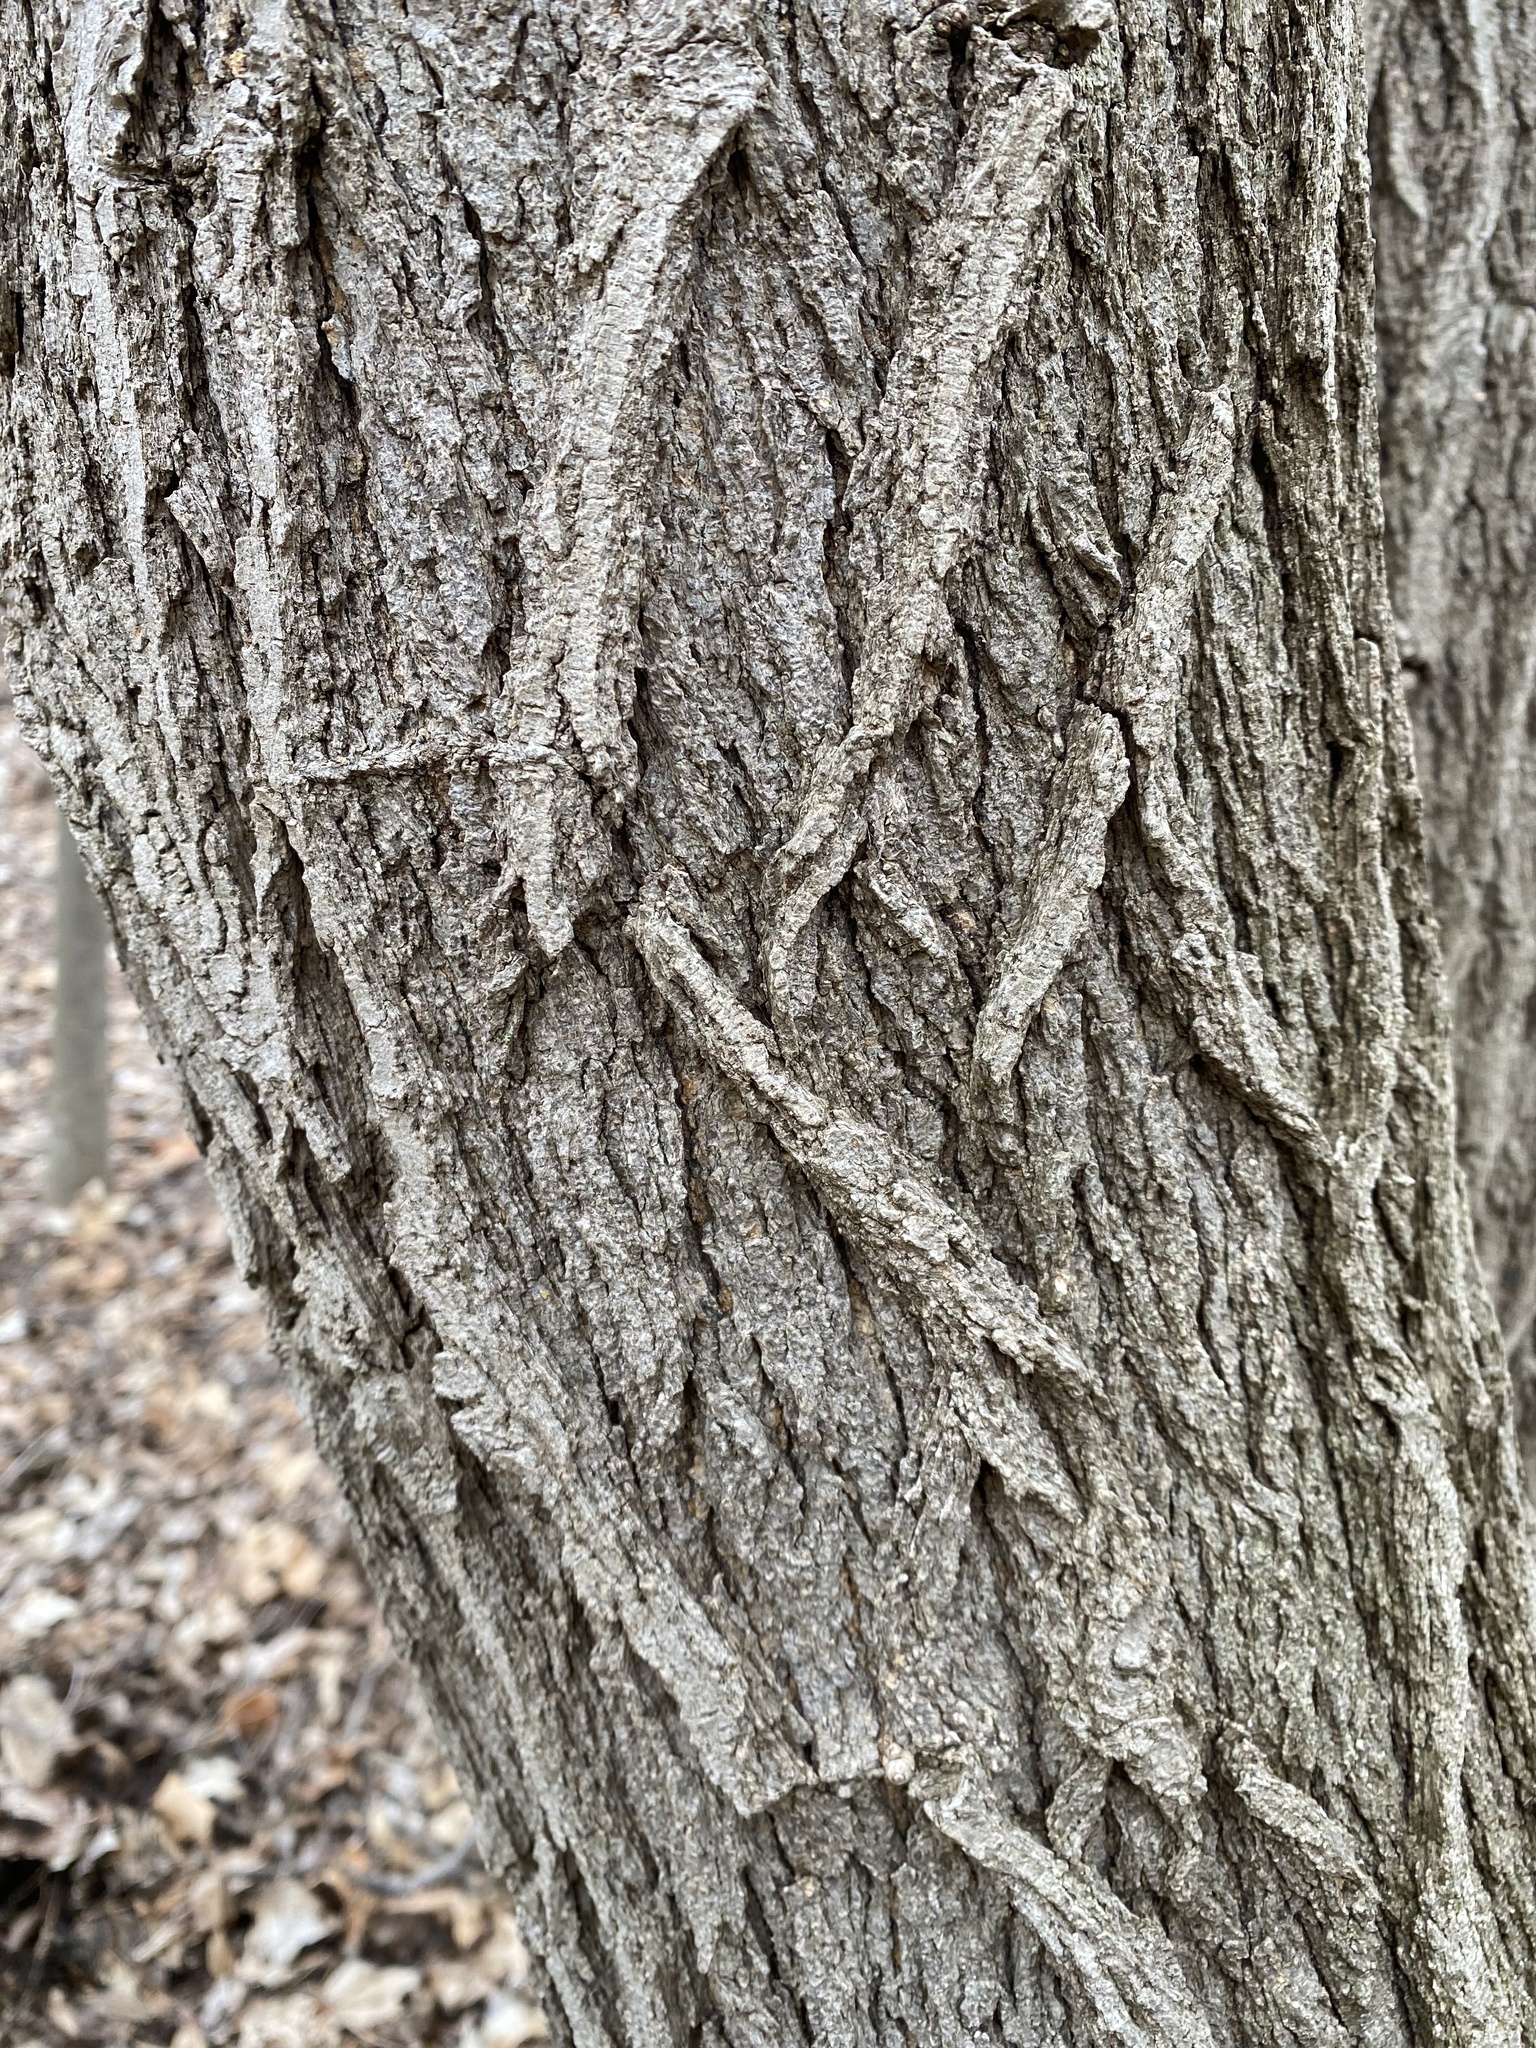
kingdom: Plantae
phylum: Tracheophyta
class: Magnoliopsida
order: Fabales
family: Fabaceae
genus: Robinia
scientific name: Robinia pseudoacacia
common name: Black locust
